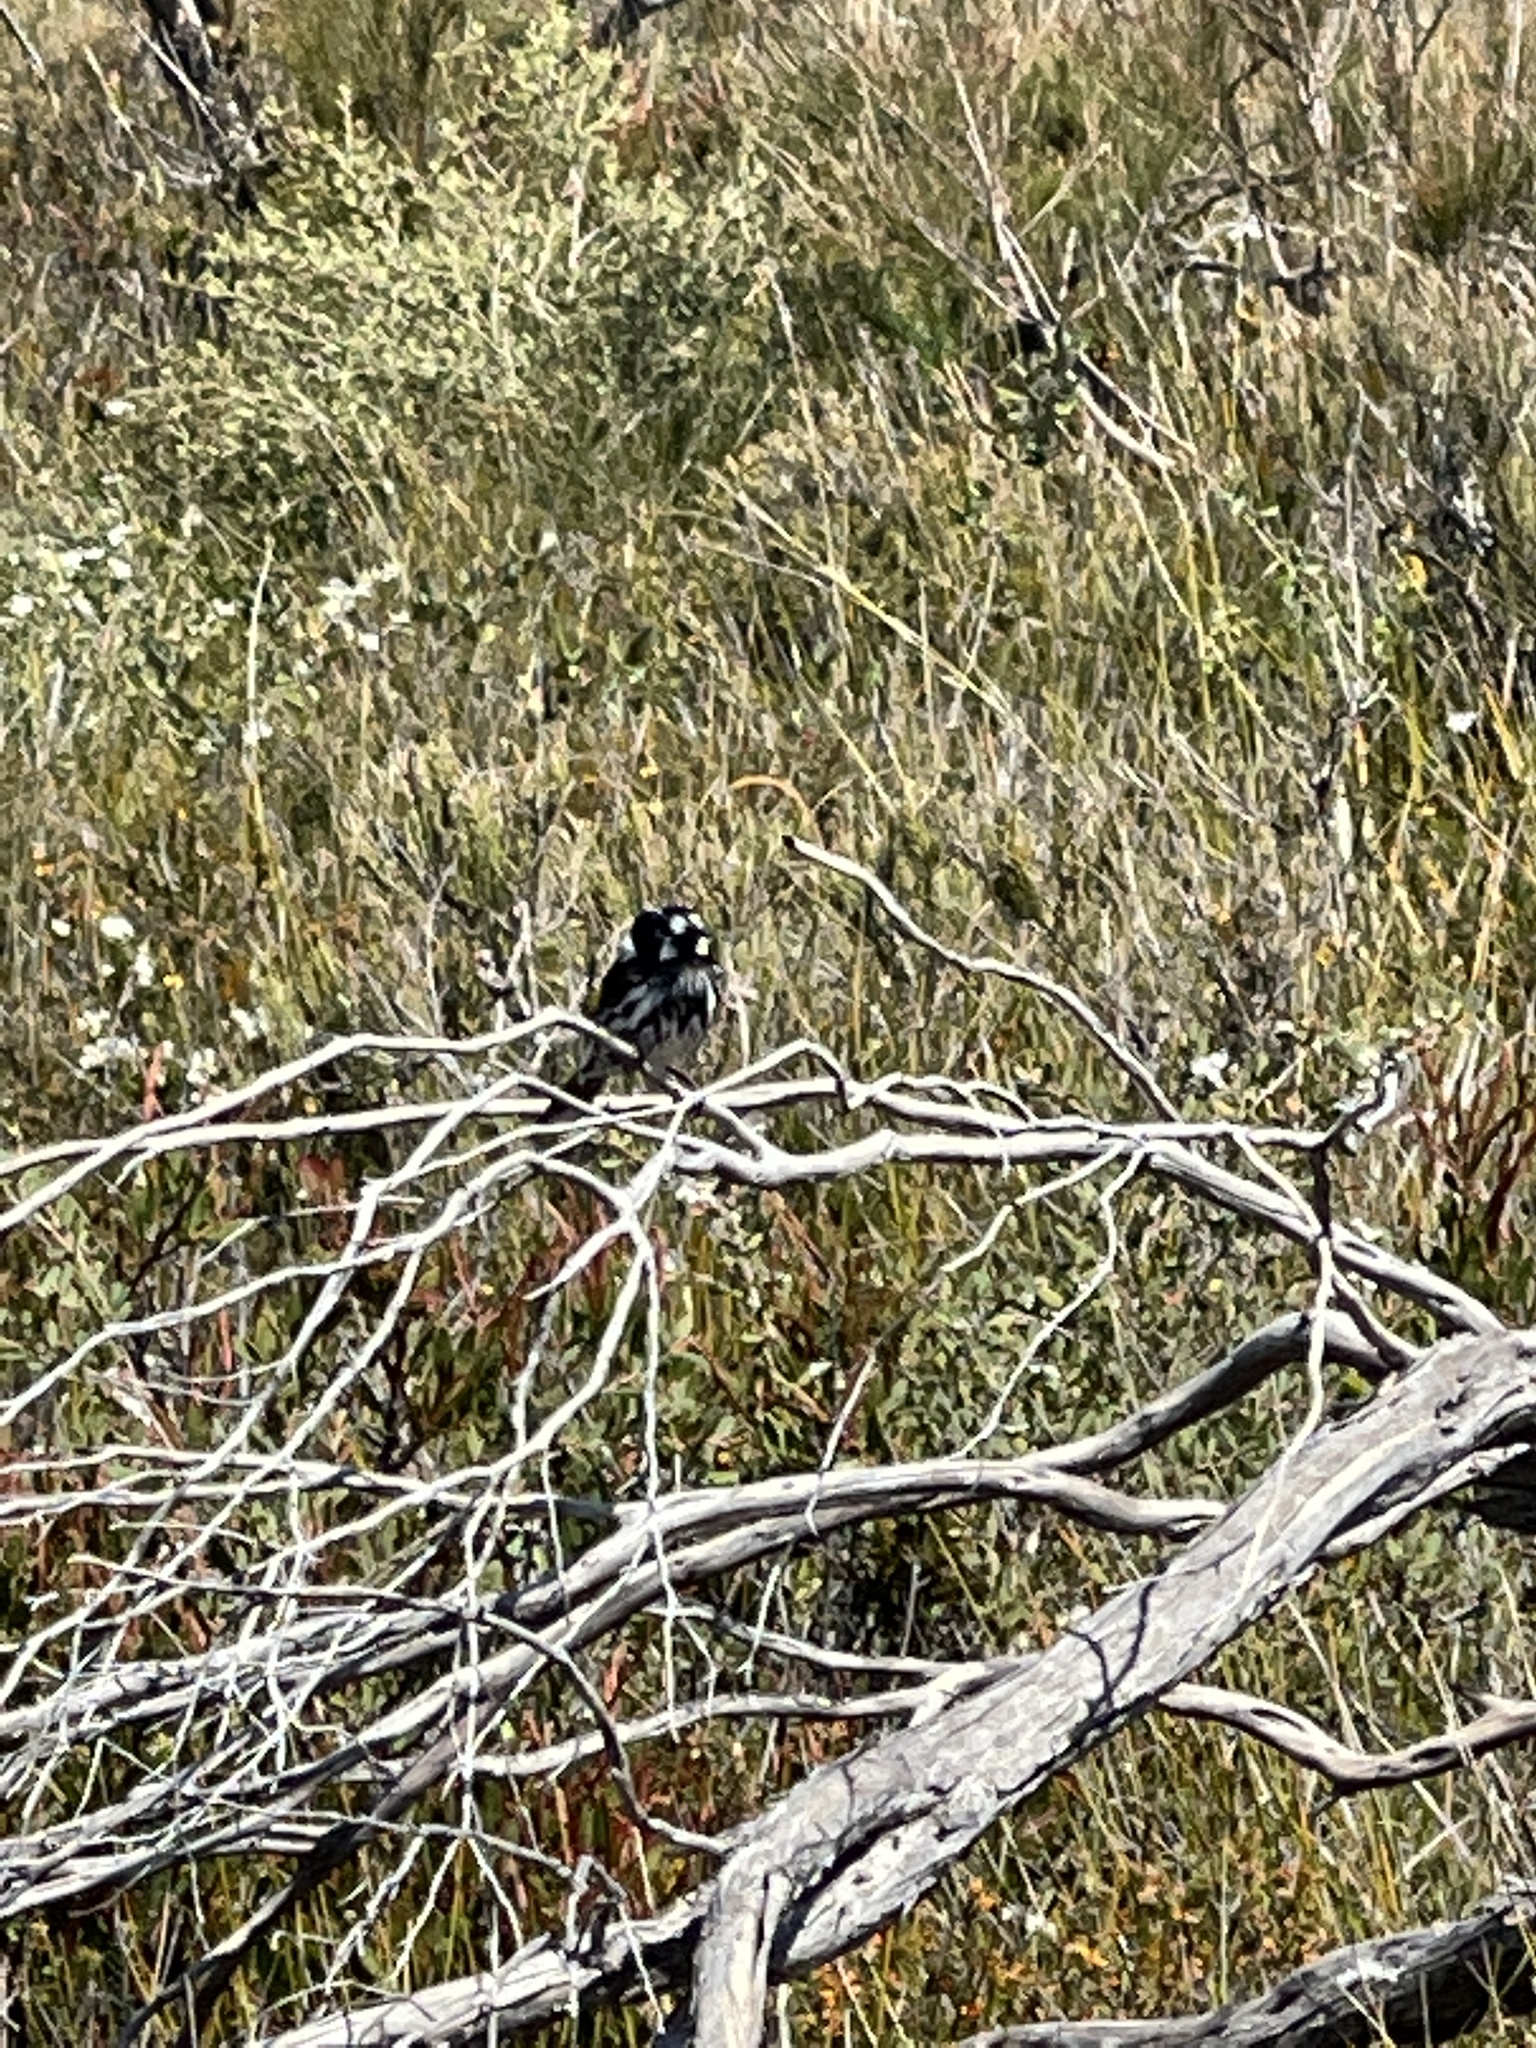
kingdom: Animalia
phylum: Chordata
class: Aves
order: Passeriformes
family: Meliphagidae
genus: Phylidonyris
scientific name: Phylidonyris novaehollandiae
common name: New holland honeyeater
